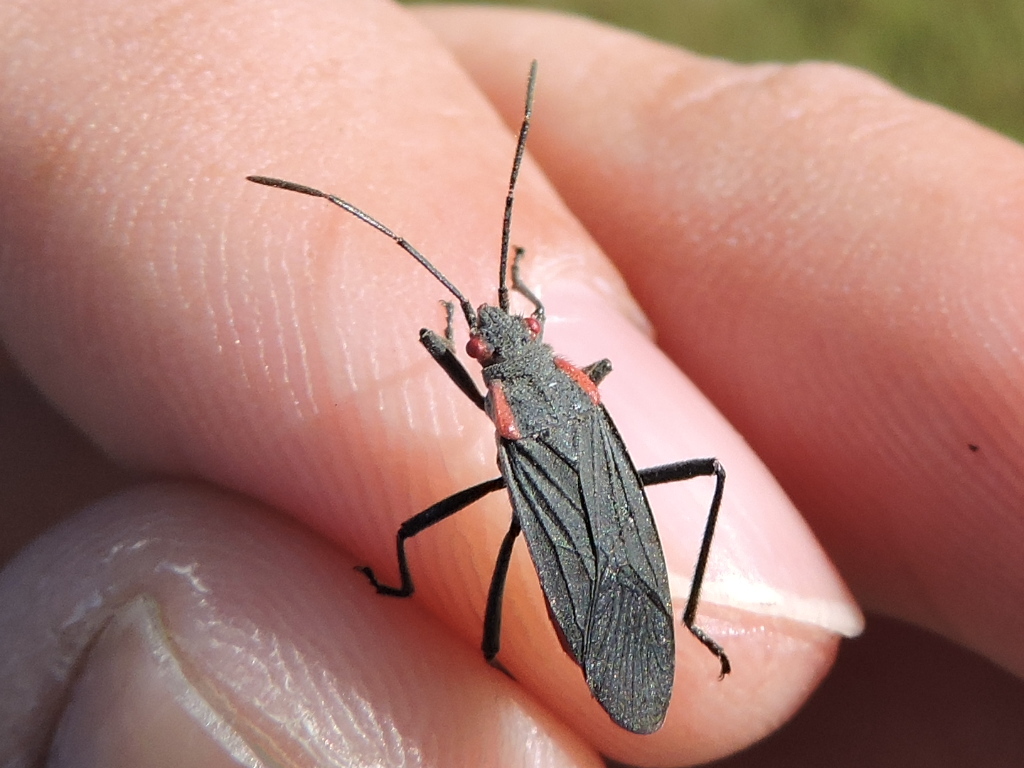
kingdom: Animalia
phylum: Arthropoda
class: Insecta
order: Hemiptera
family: Rhopalidae
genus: Jadera
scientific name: Jadera haematoloma
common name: Red-shouldered bug
